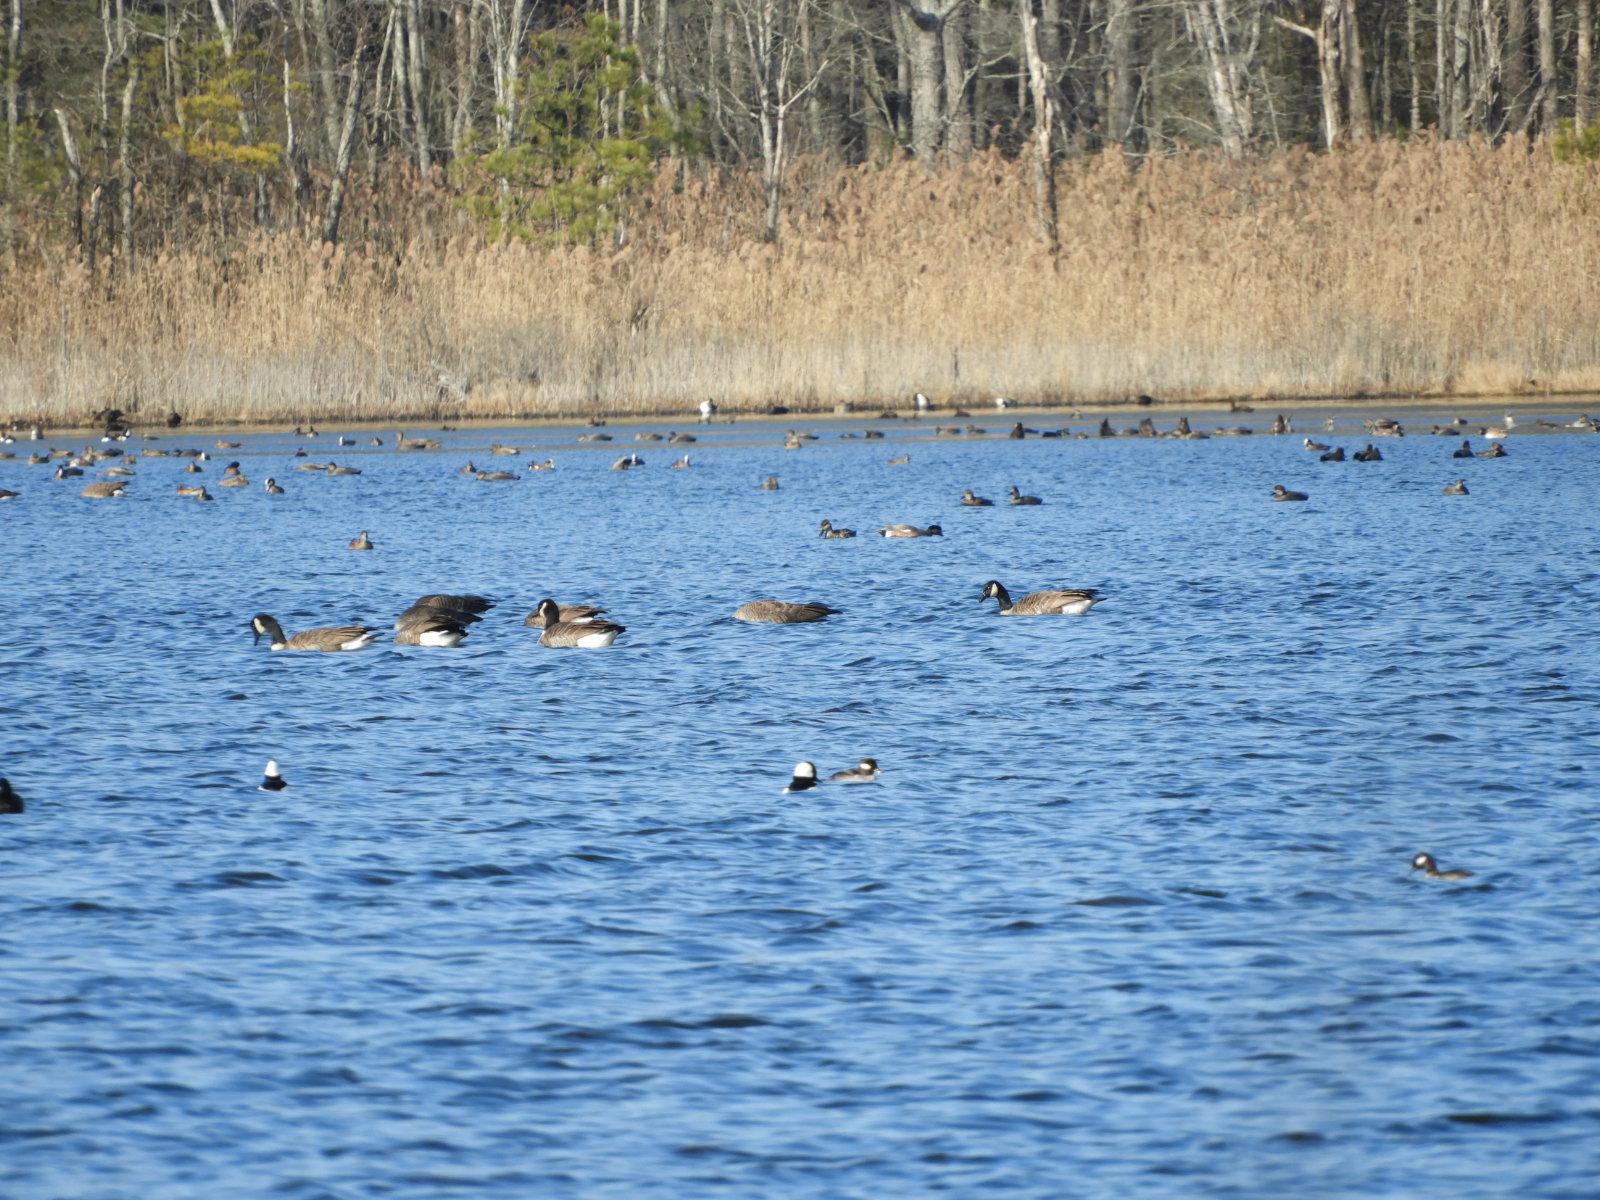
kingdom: Animalia
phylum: Chordata
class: Aves
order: Anseriformes
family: Anatidae
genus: Bucephala
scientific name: Bucephala albeola
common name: Bufflehead
